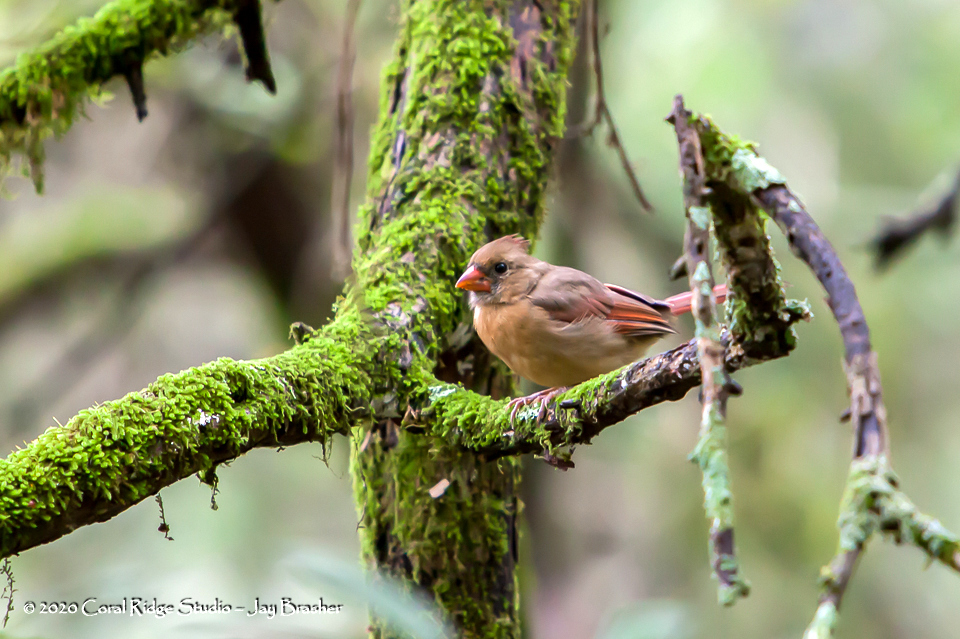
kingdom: Animalia
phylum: Chordata
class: Aves
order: Passeriformes
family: Cardinalidae
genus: Cardinalis
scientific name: Cardinalis cardinalis
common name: Northern cardinal
